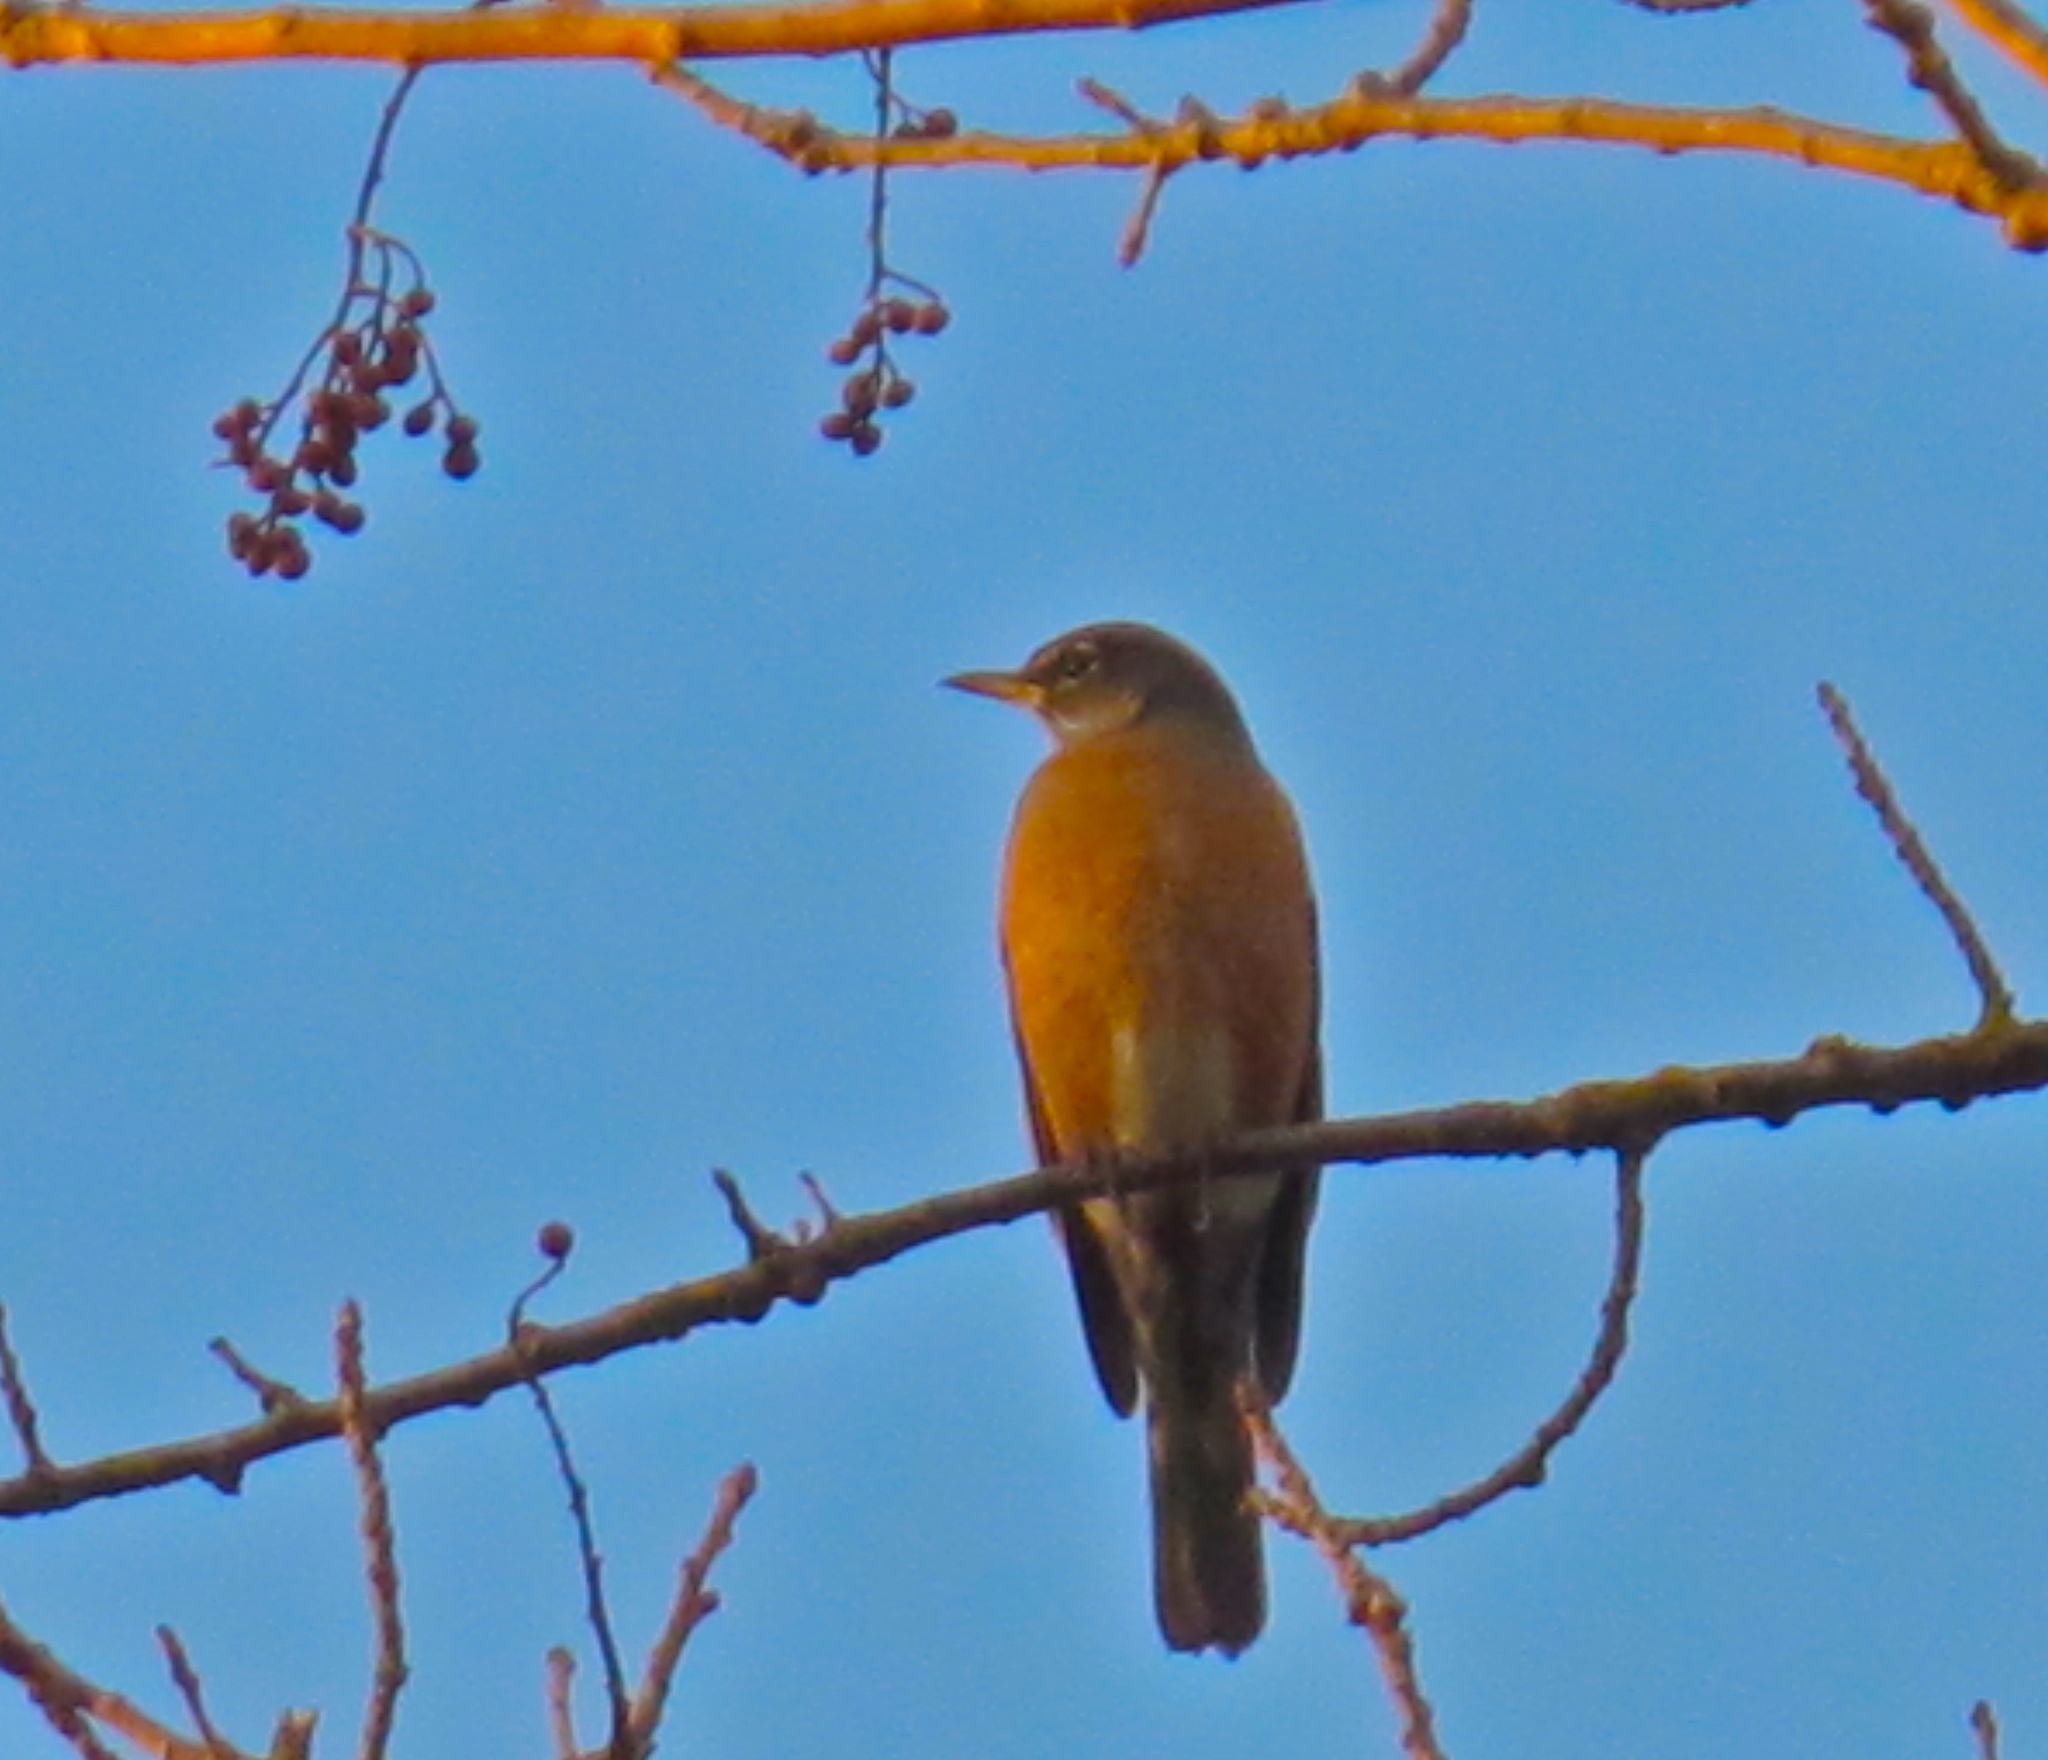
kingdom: Animalia
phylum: Chordata
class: Aves
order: Passeriformes
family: Turdidae
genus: Turdus
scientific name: Turdus migratorius
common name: American robin
